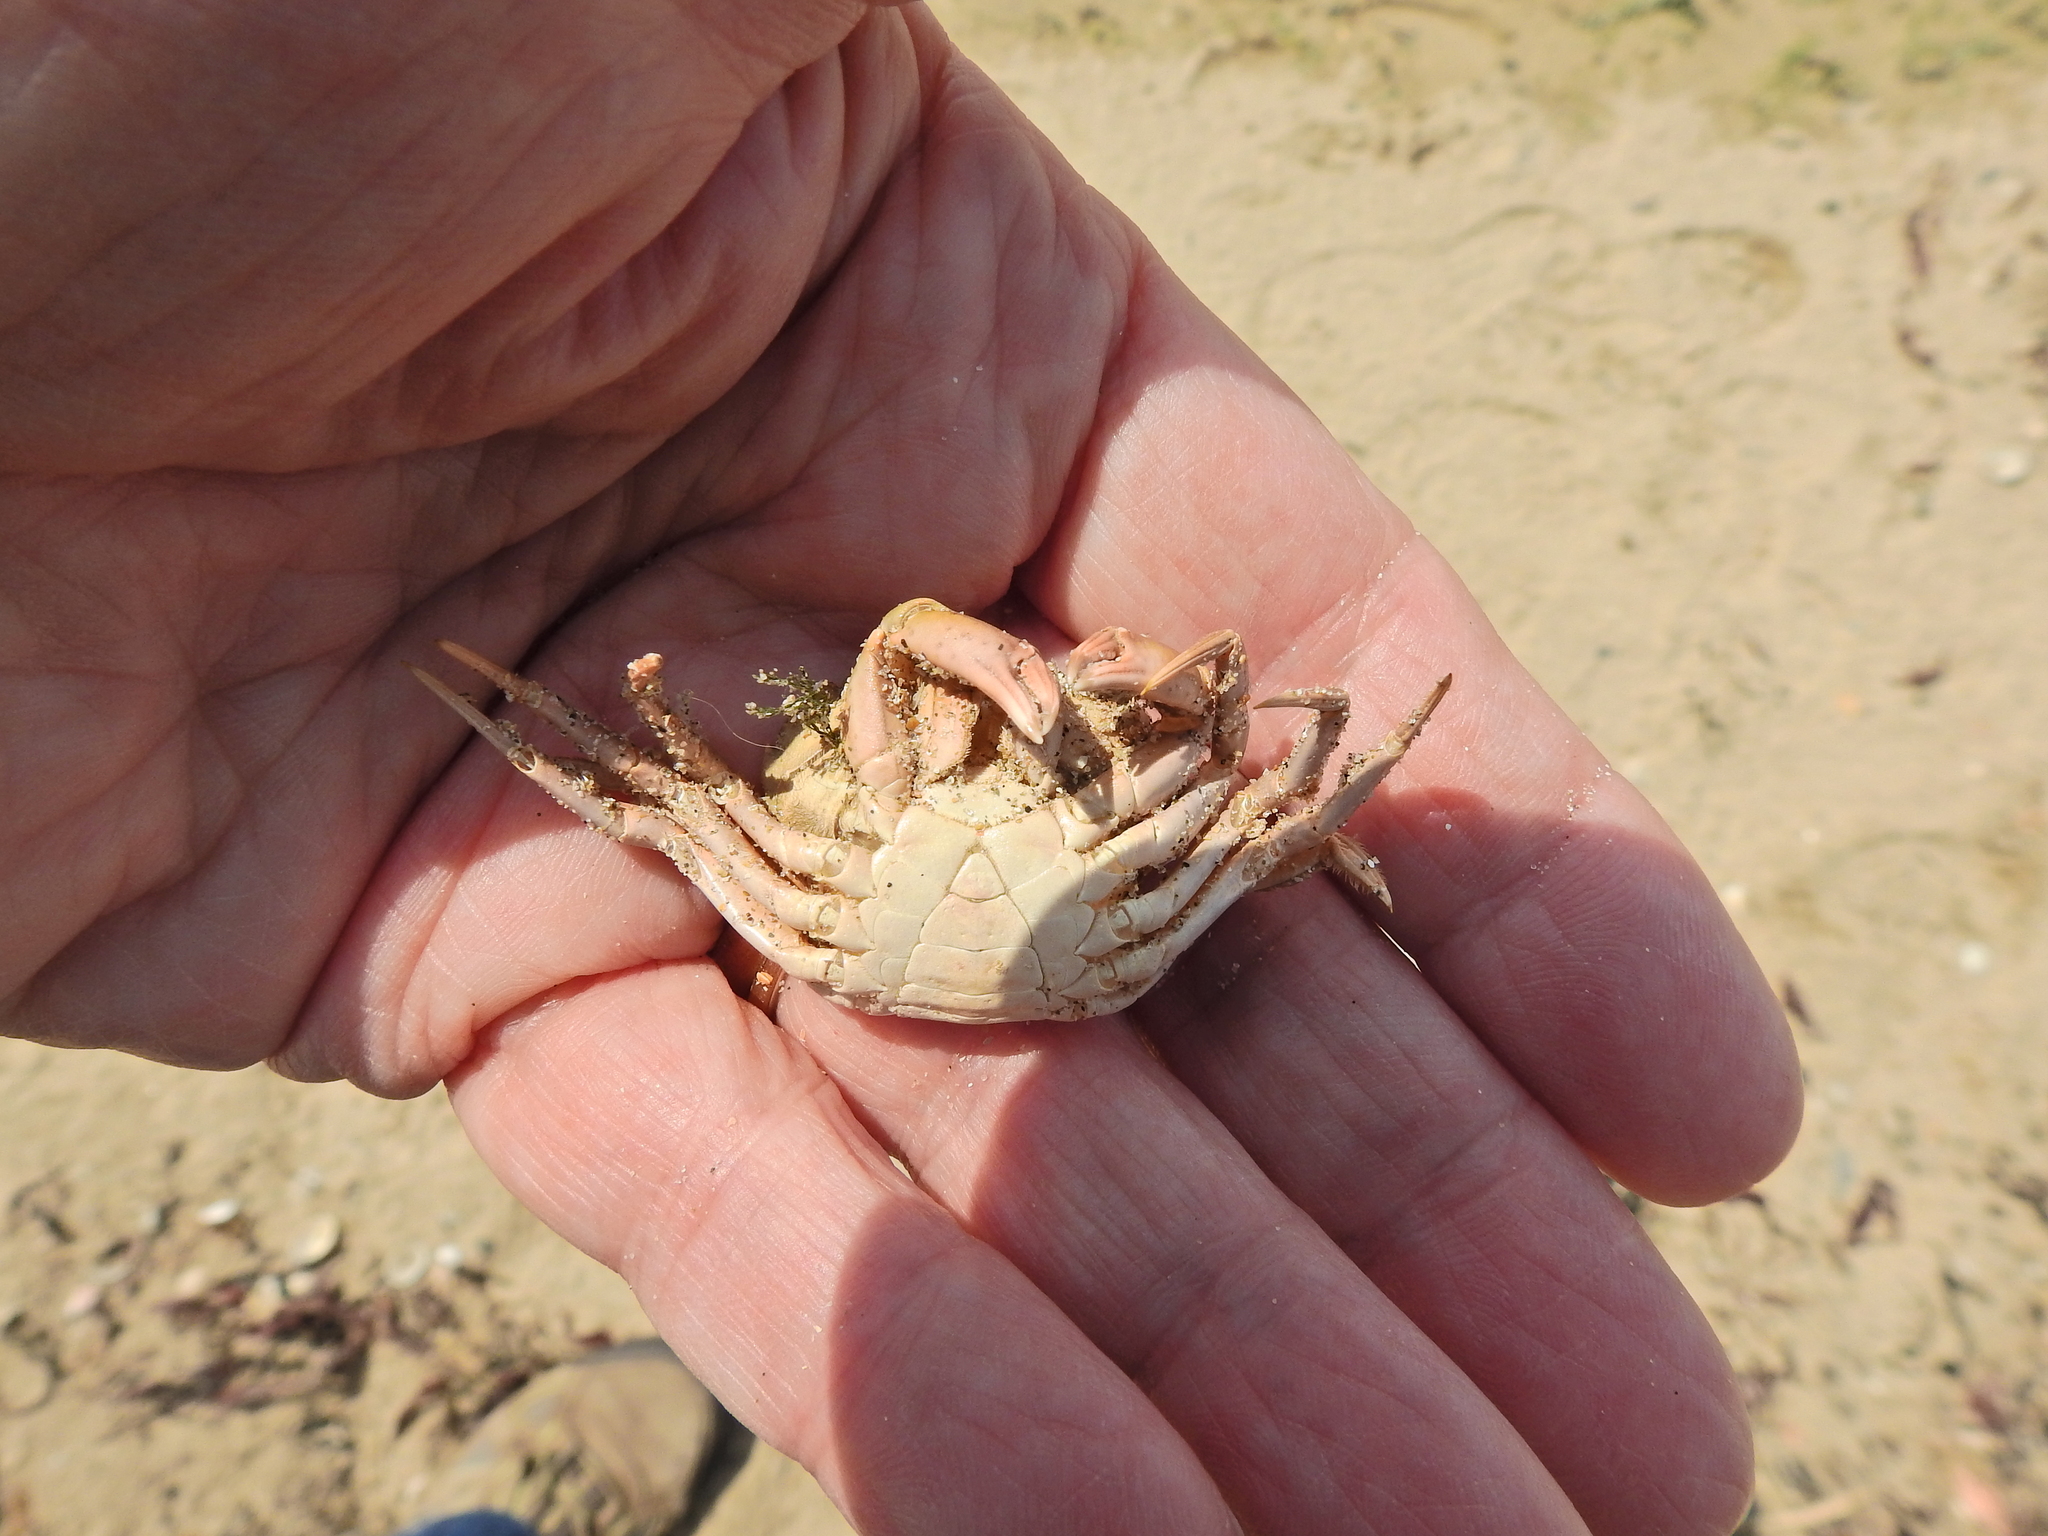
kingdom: Animalia
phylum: Arthropoda
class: Malacostraca
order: Decapoda
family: Carcinidae
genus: Carcinus
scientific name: Carcinus maenas
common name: European green crab
